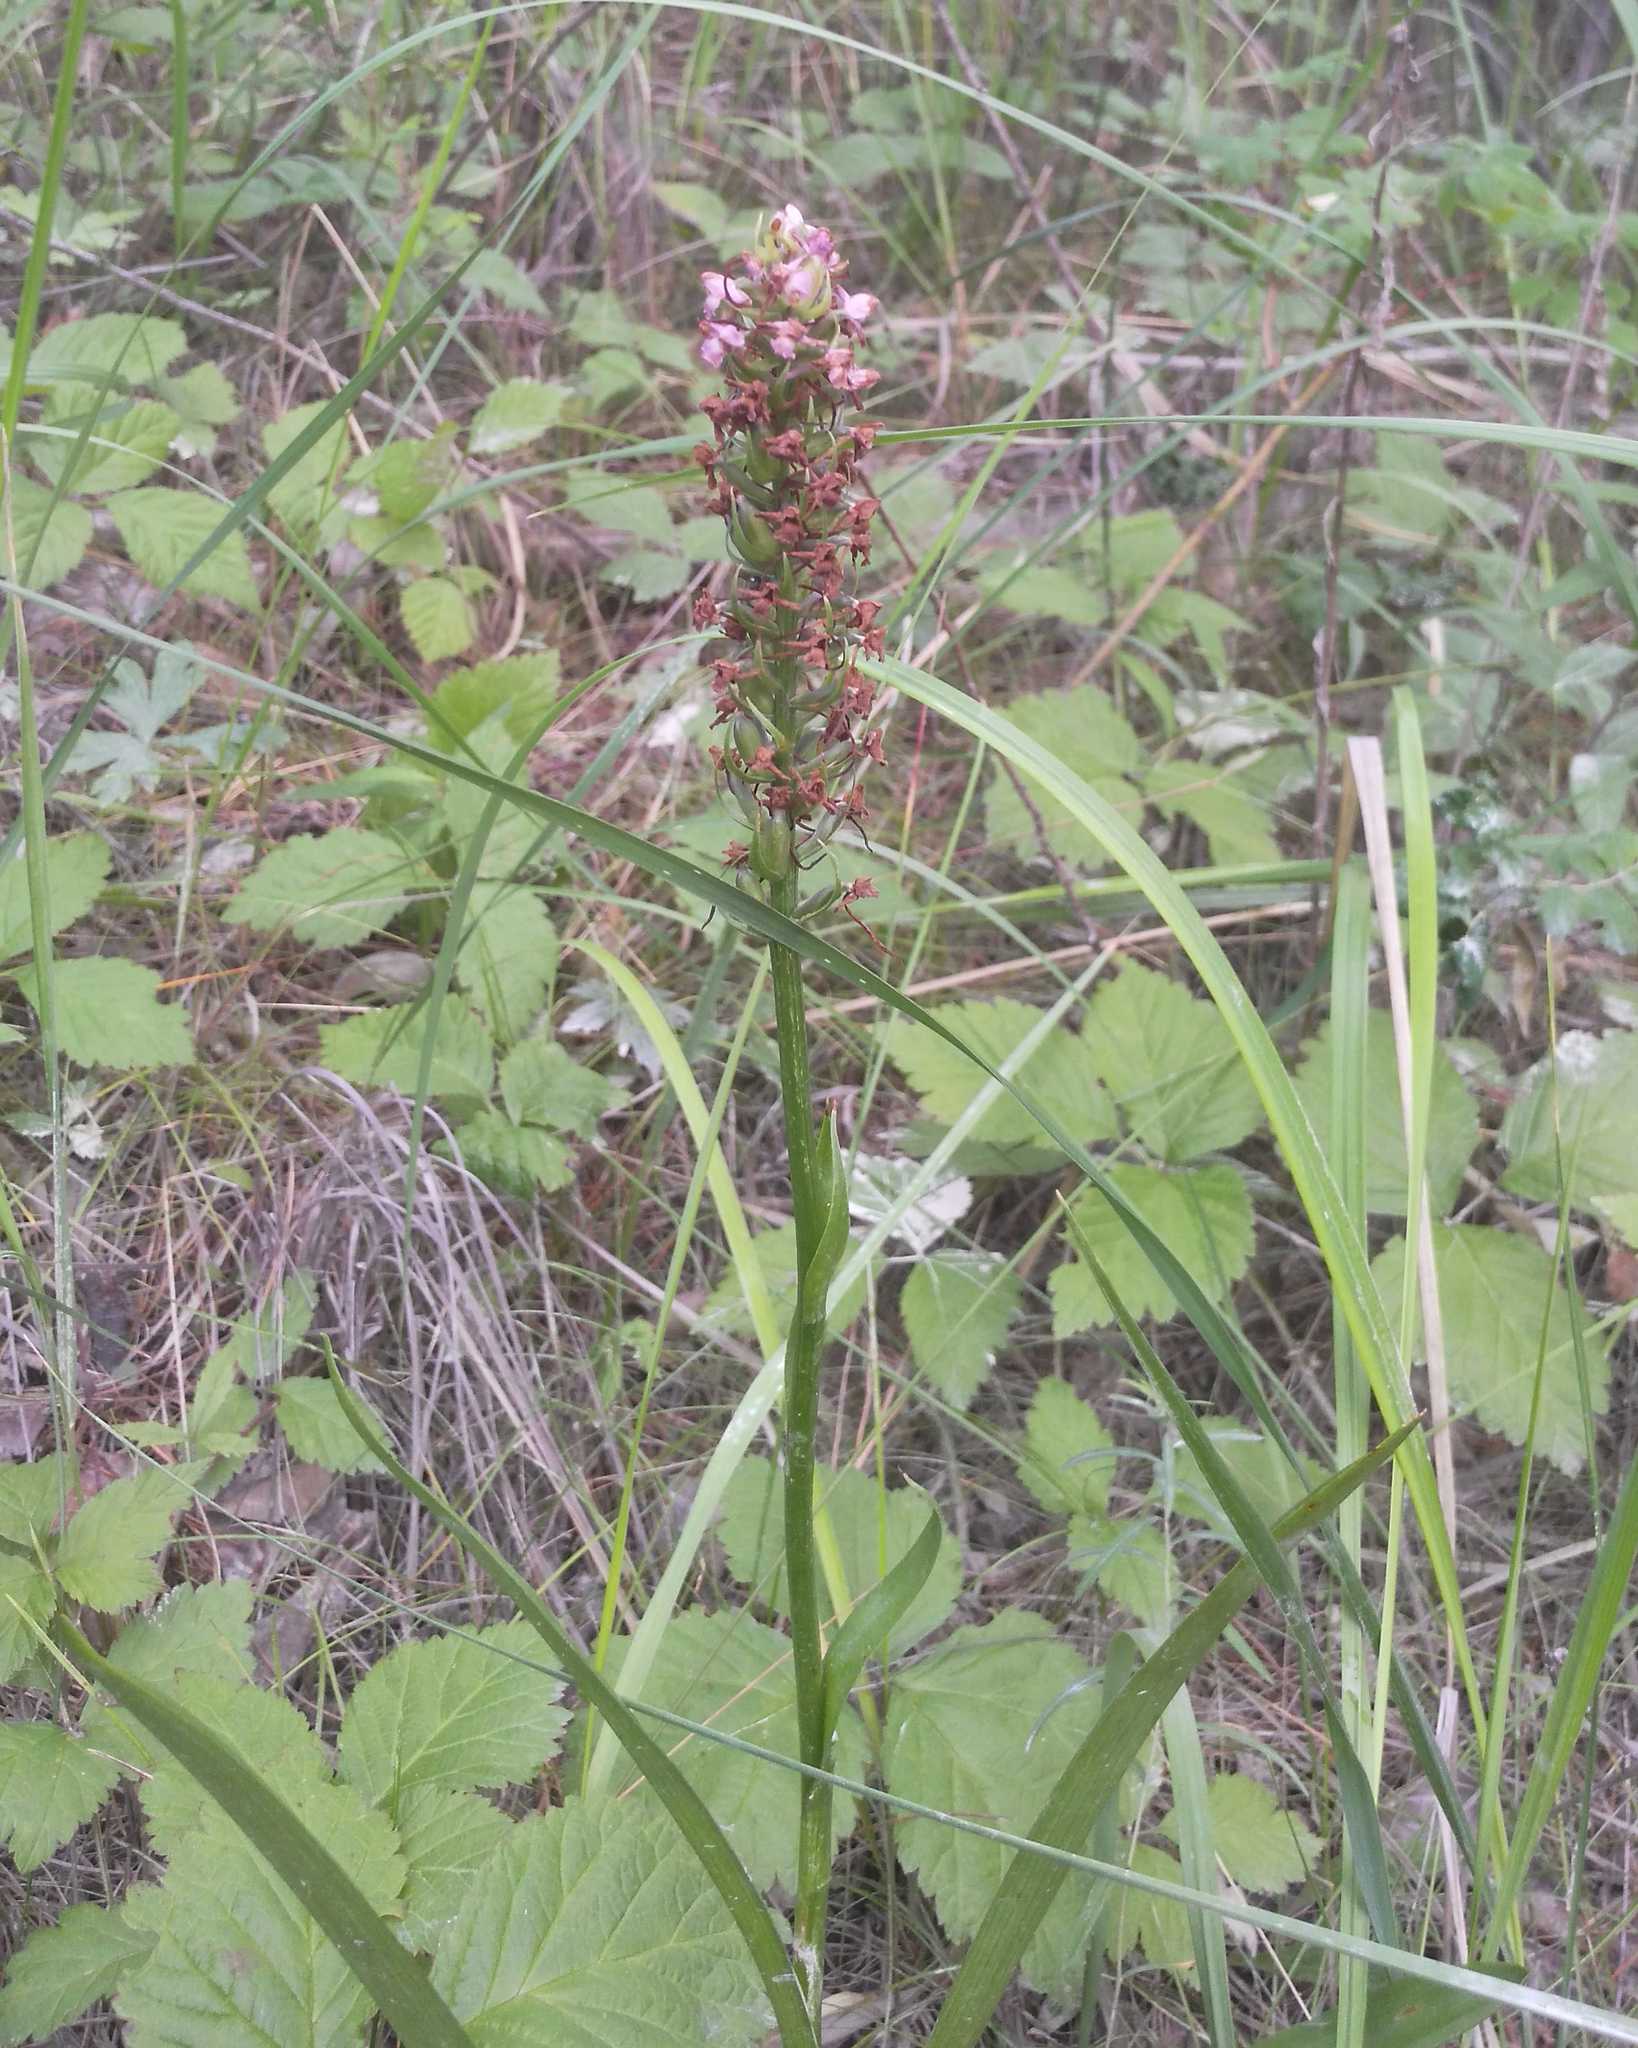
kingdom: Plantae
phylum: Tracheophyta
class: Liliopsida
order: Asparagales
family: Orchidaceae
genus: Gymnadenia
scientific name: Gymnadenia conopsea
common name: Fragrant orchid
